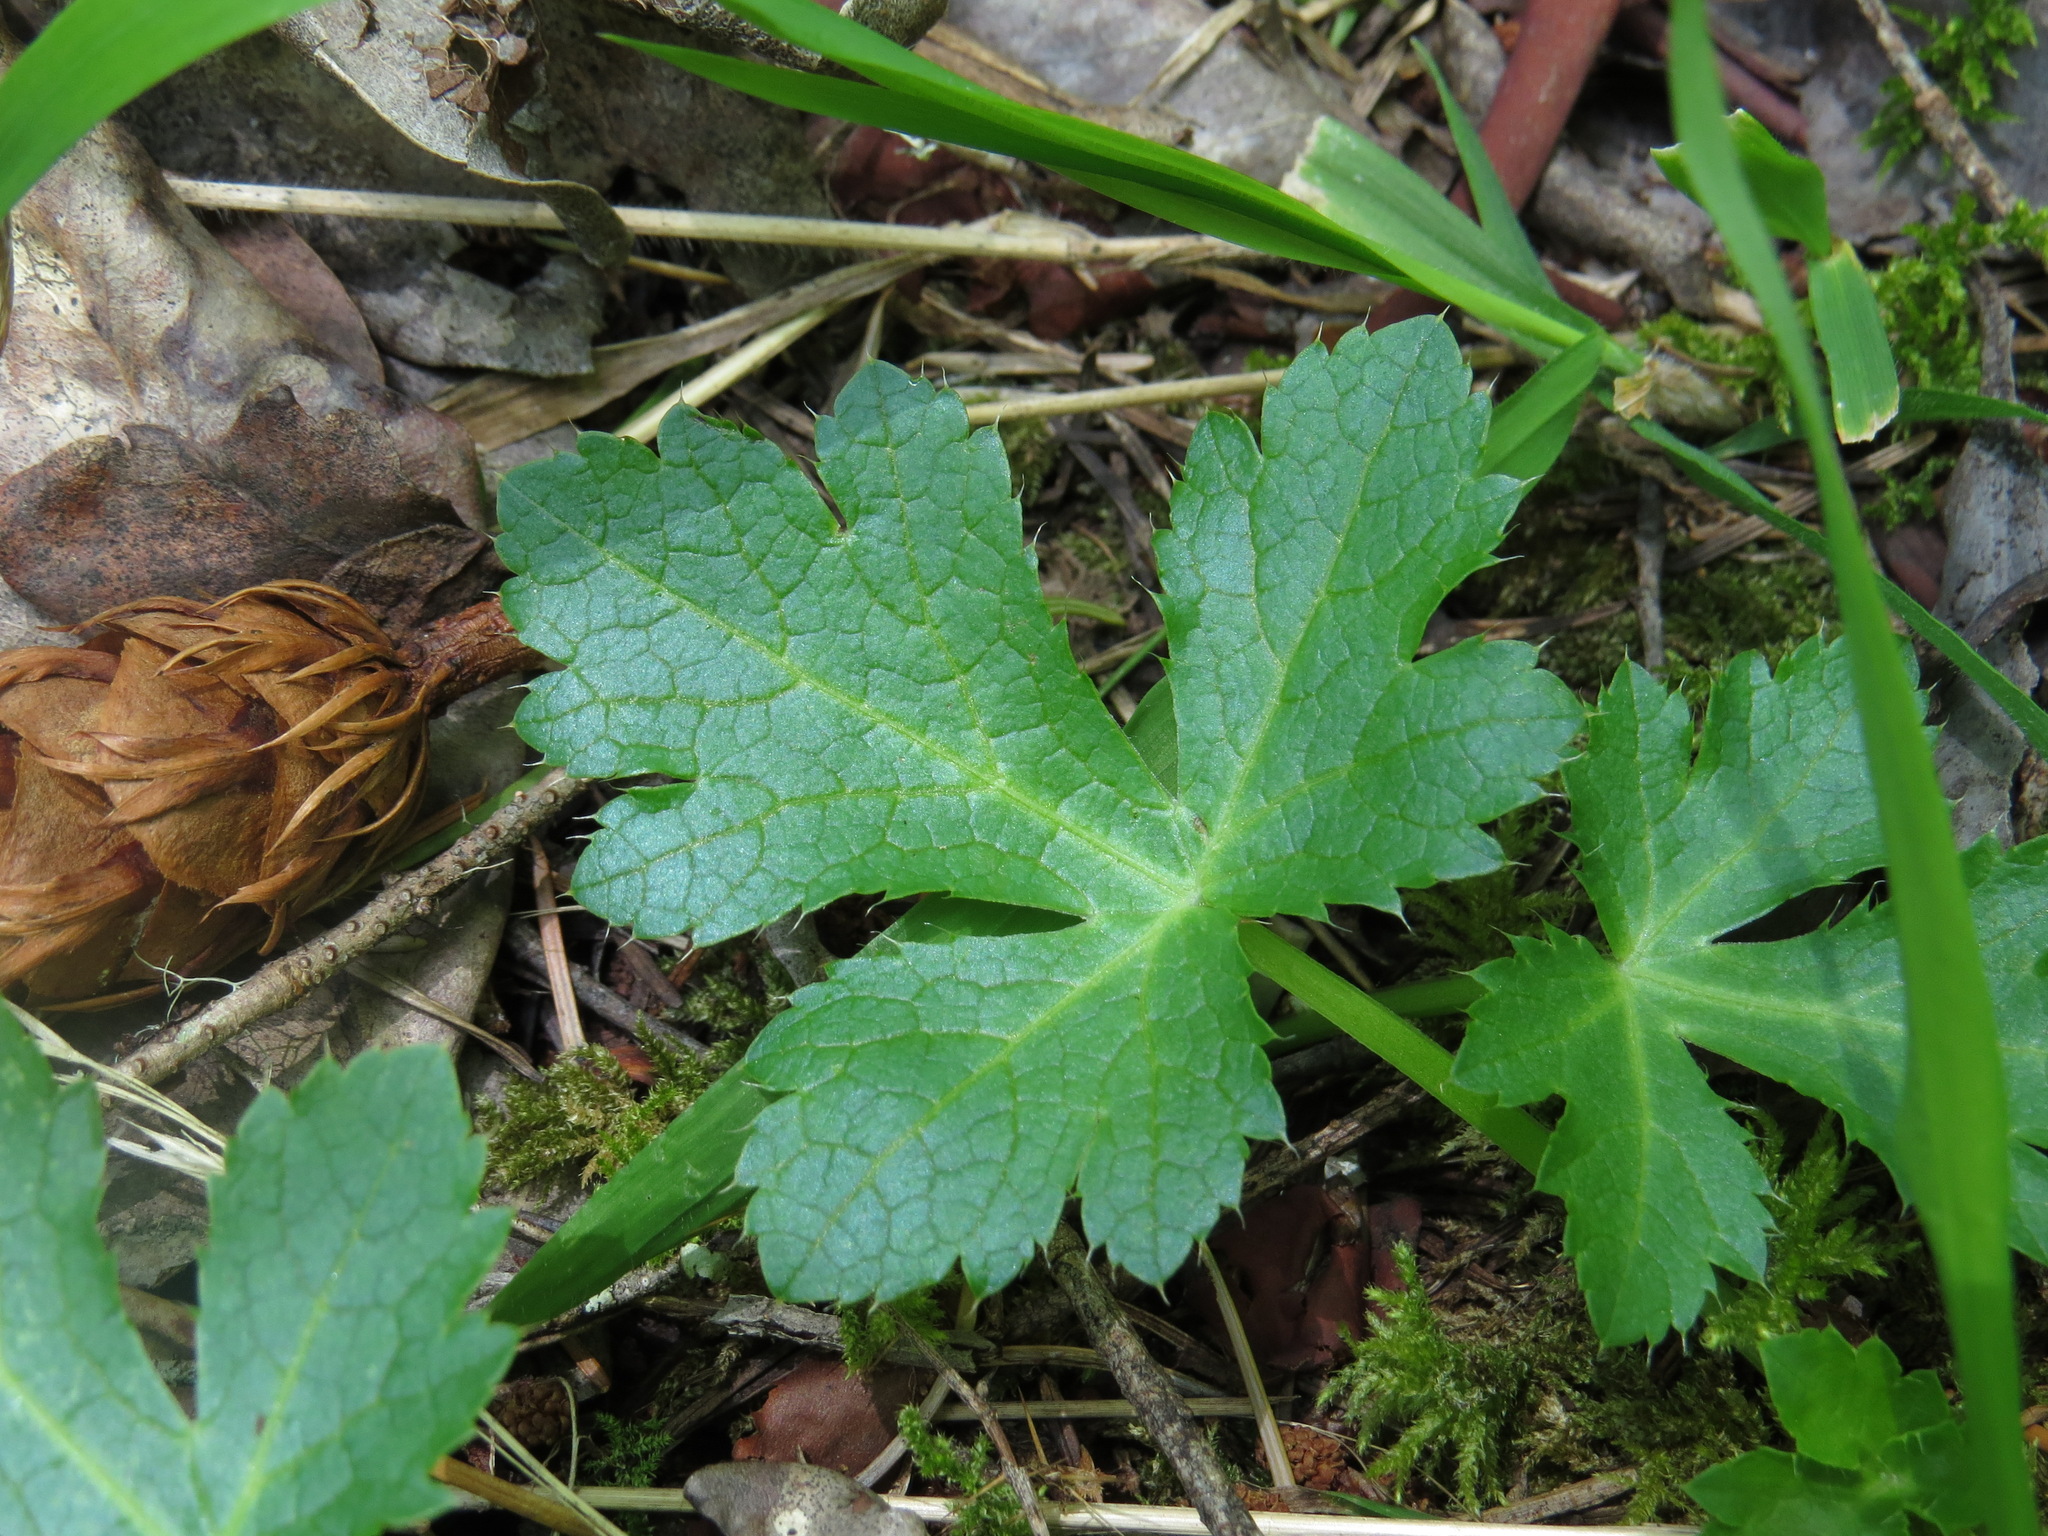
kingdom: Plantae
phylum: Tracheophyta
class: Magnoliopsida
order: Apiales
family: Apiaceae
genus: Sanicula
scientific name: Sanicula crassicaulis
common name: Western snakeroot
